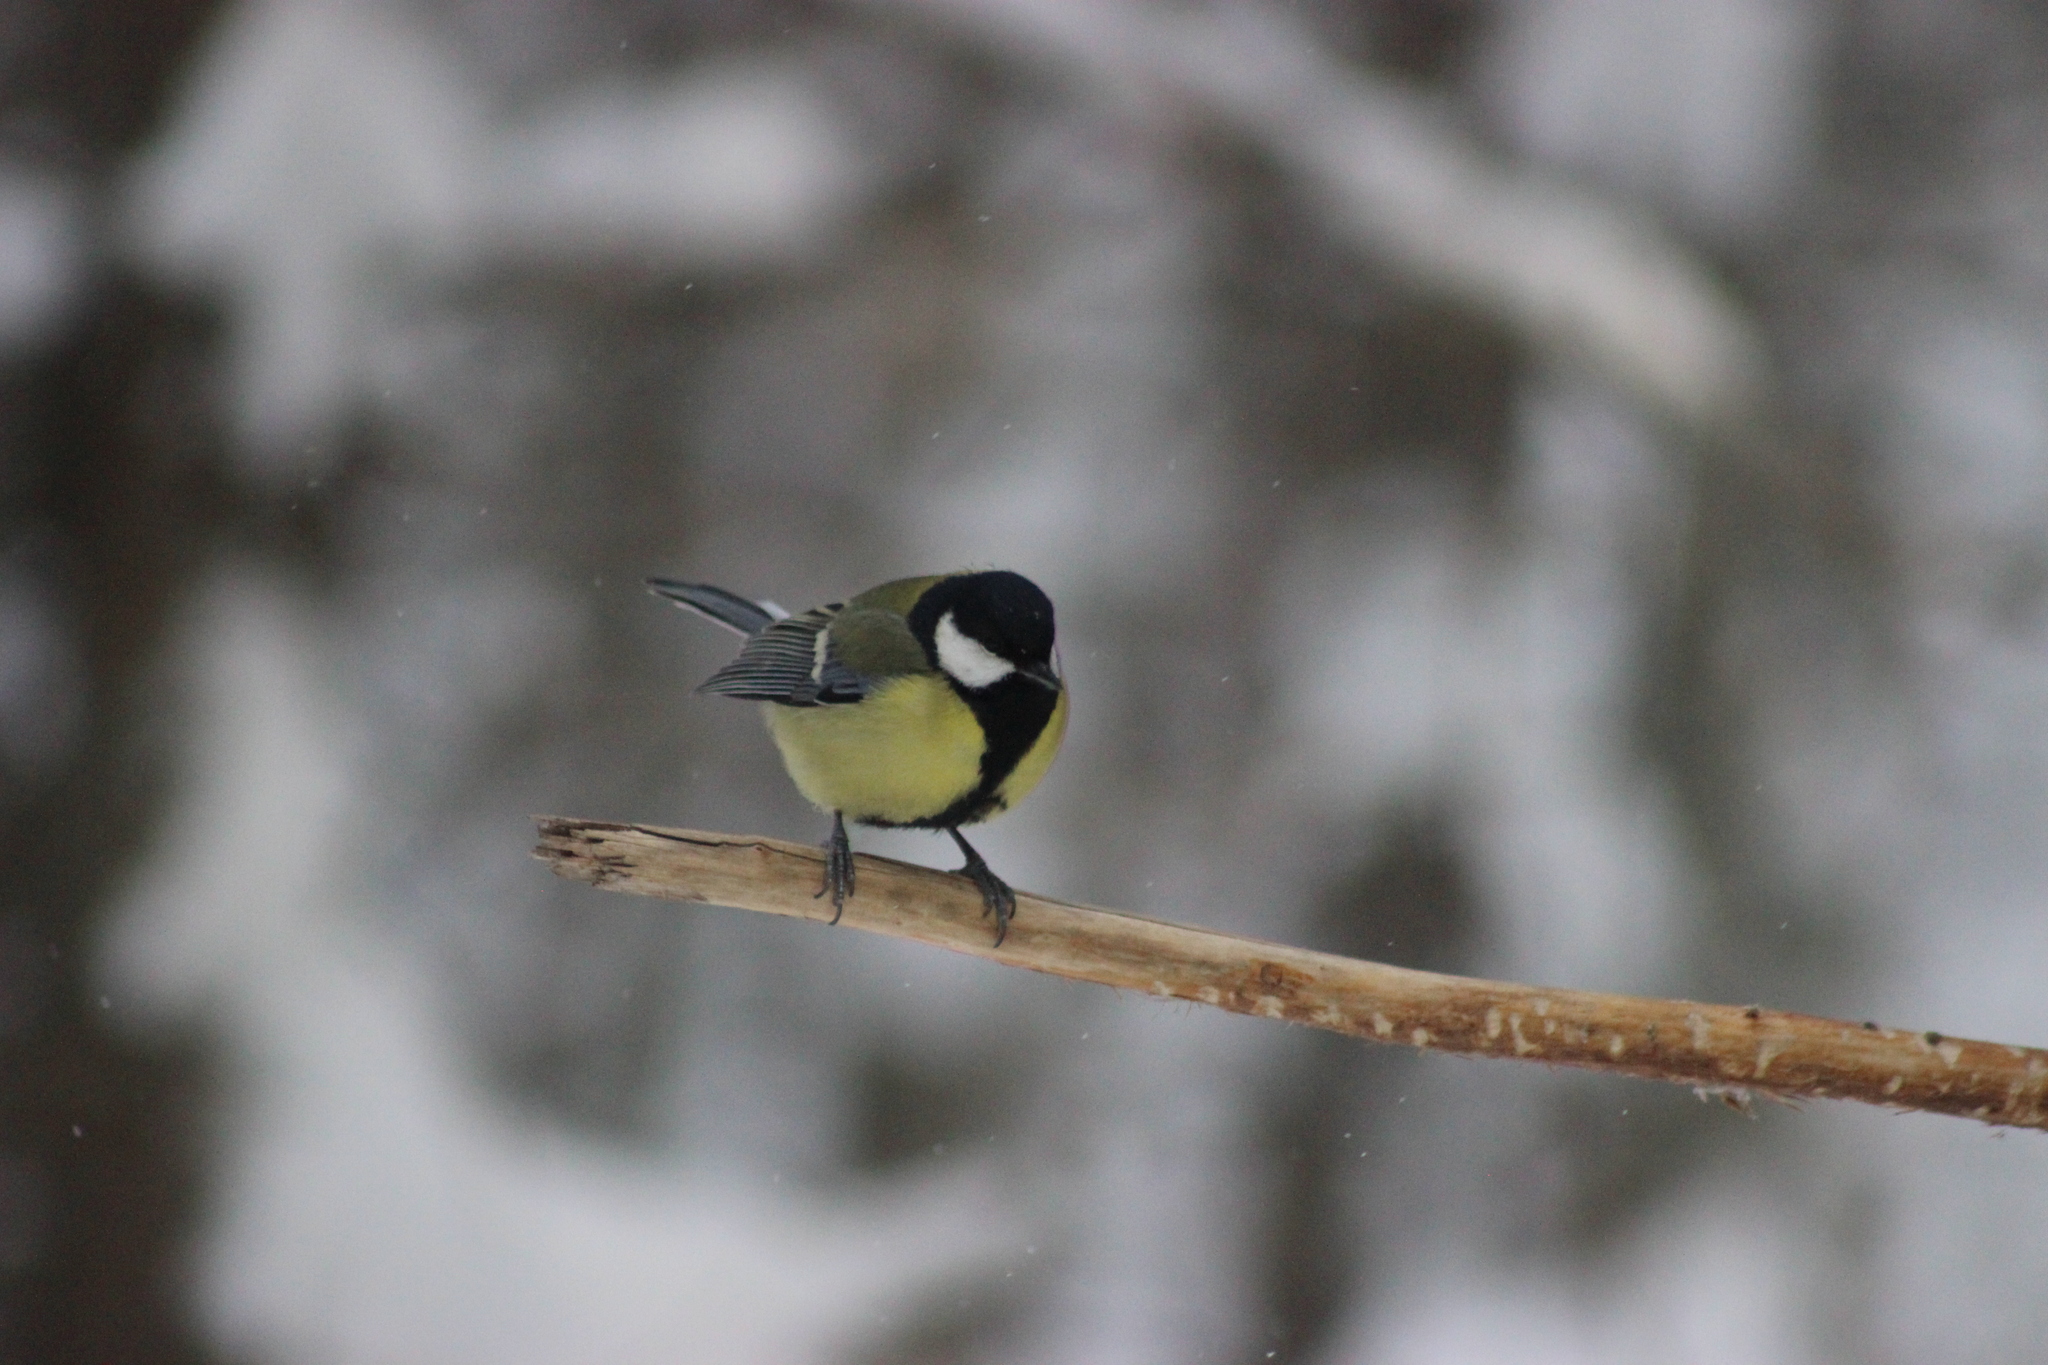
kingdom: Animalia
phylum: Chordata
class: Aves
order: Passeriformes
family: Paridae
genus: Parus
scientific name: Parus major
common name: Great tit
